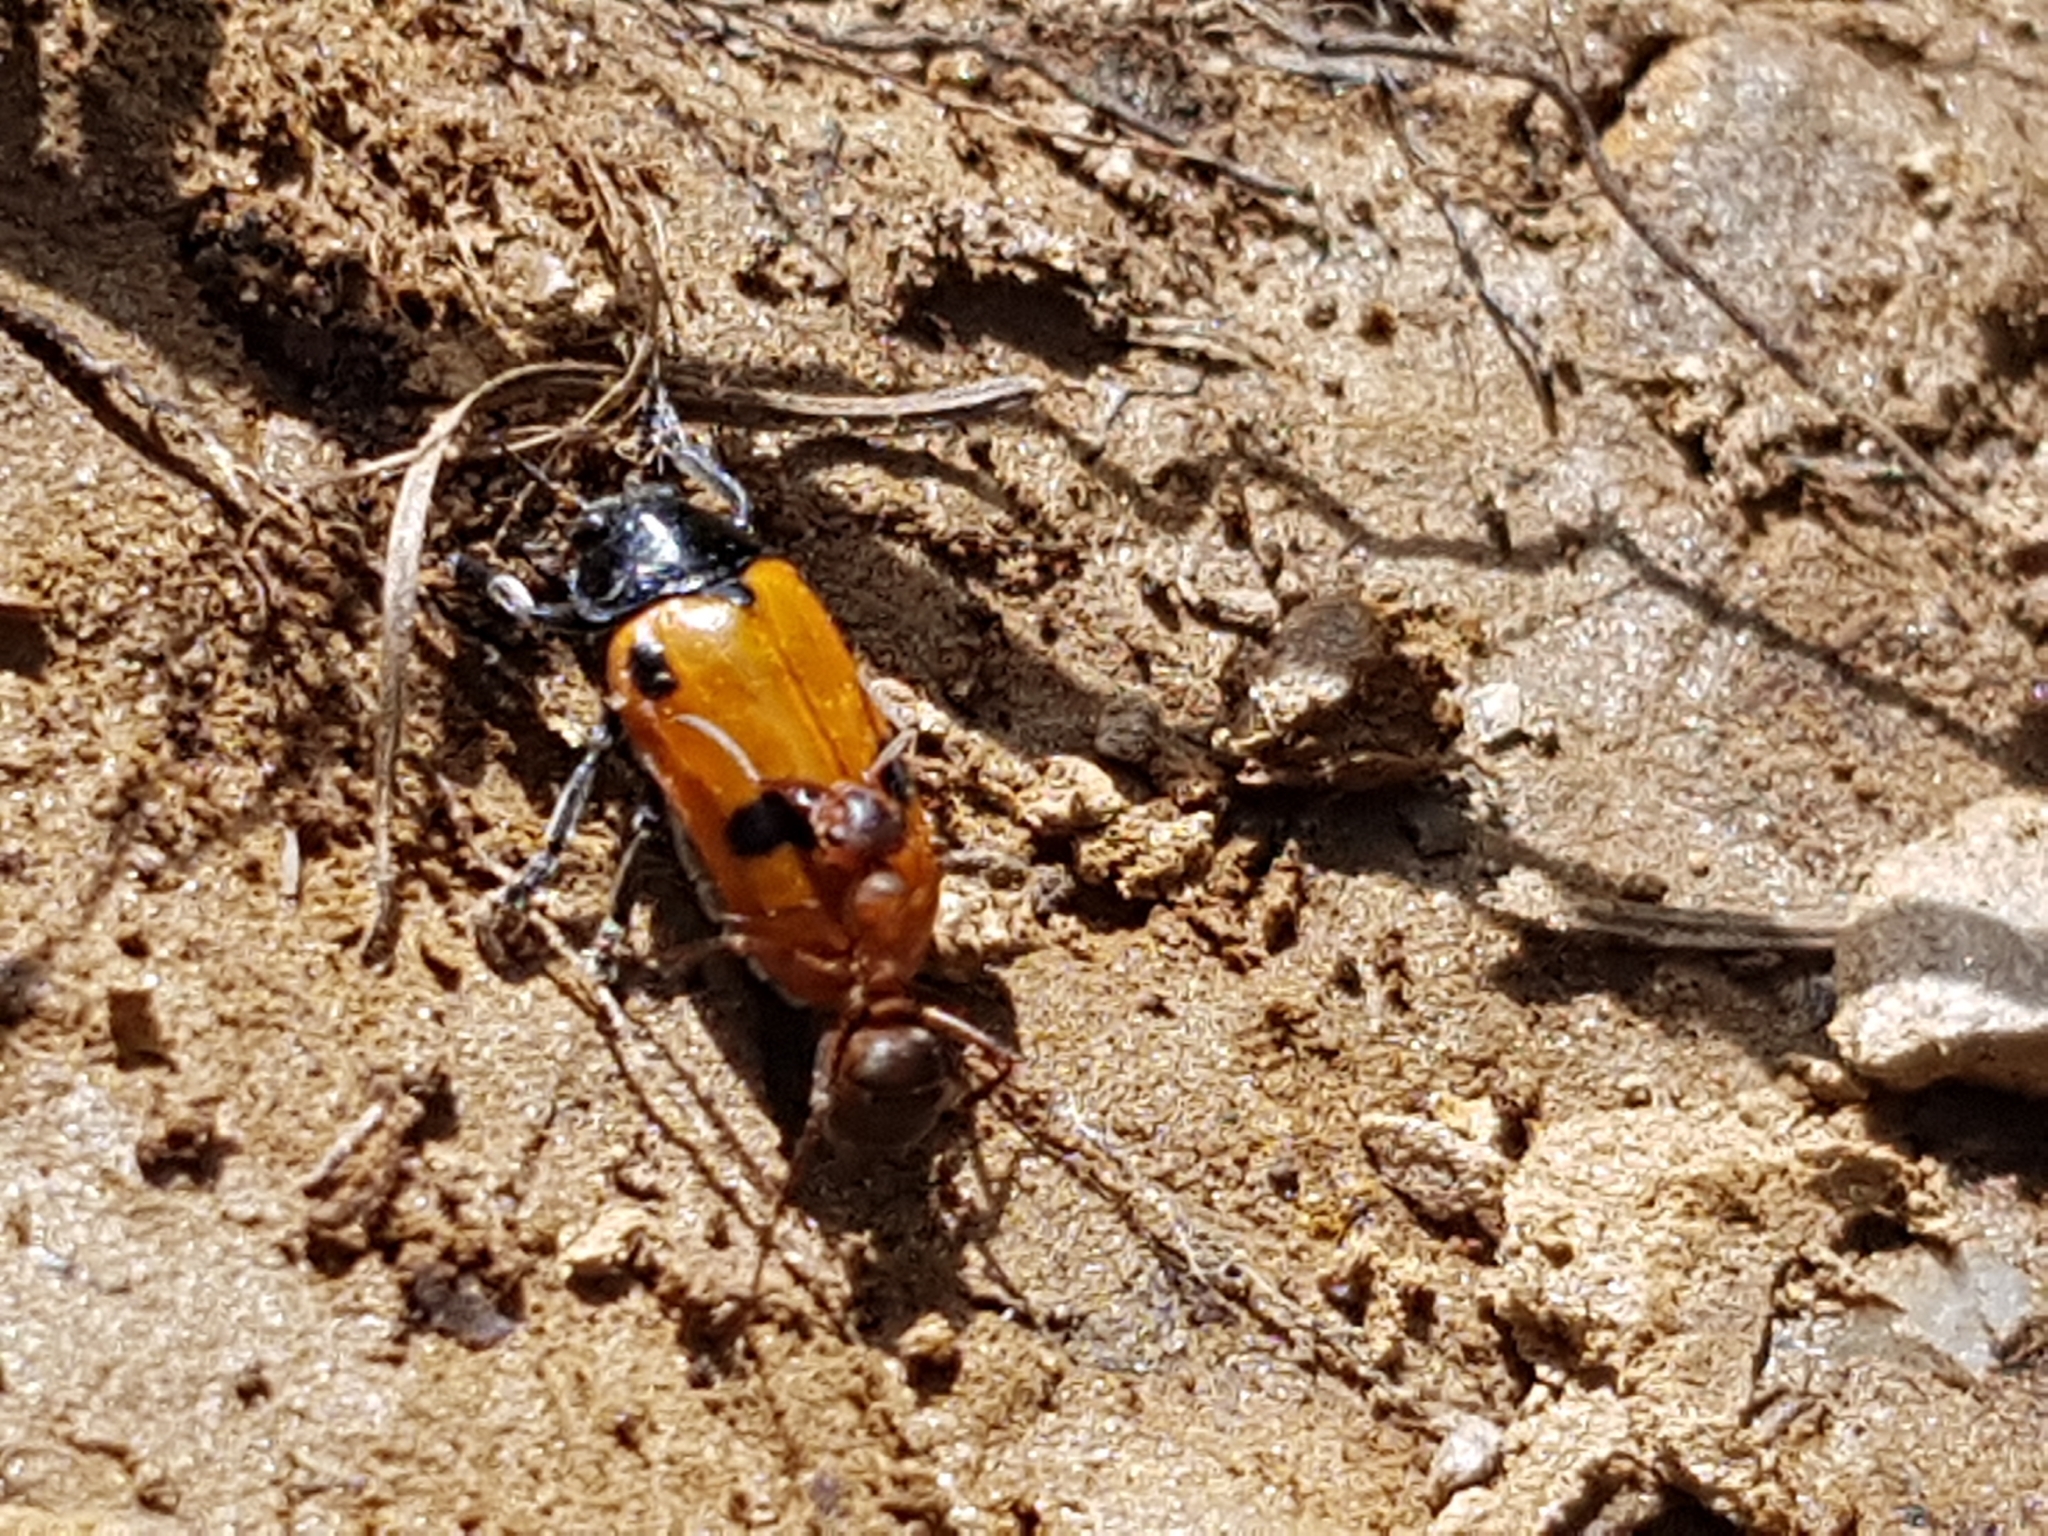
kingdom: Animalia
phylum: Arthropoda
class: Insecta
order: Coleoptera
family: Chrysomelidae
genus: Clytra
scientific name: Clytra quadripunctata
